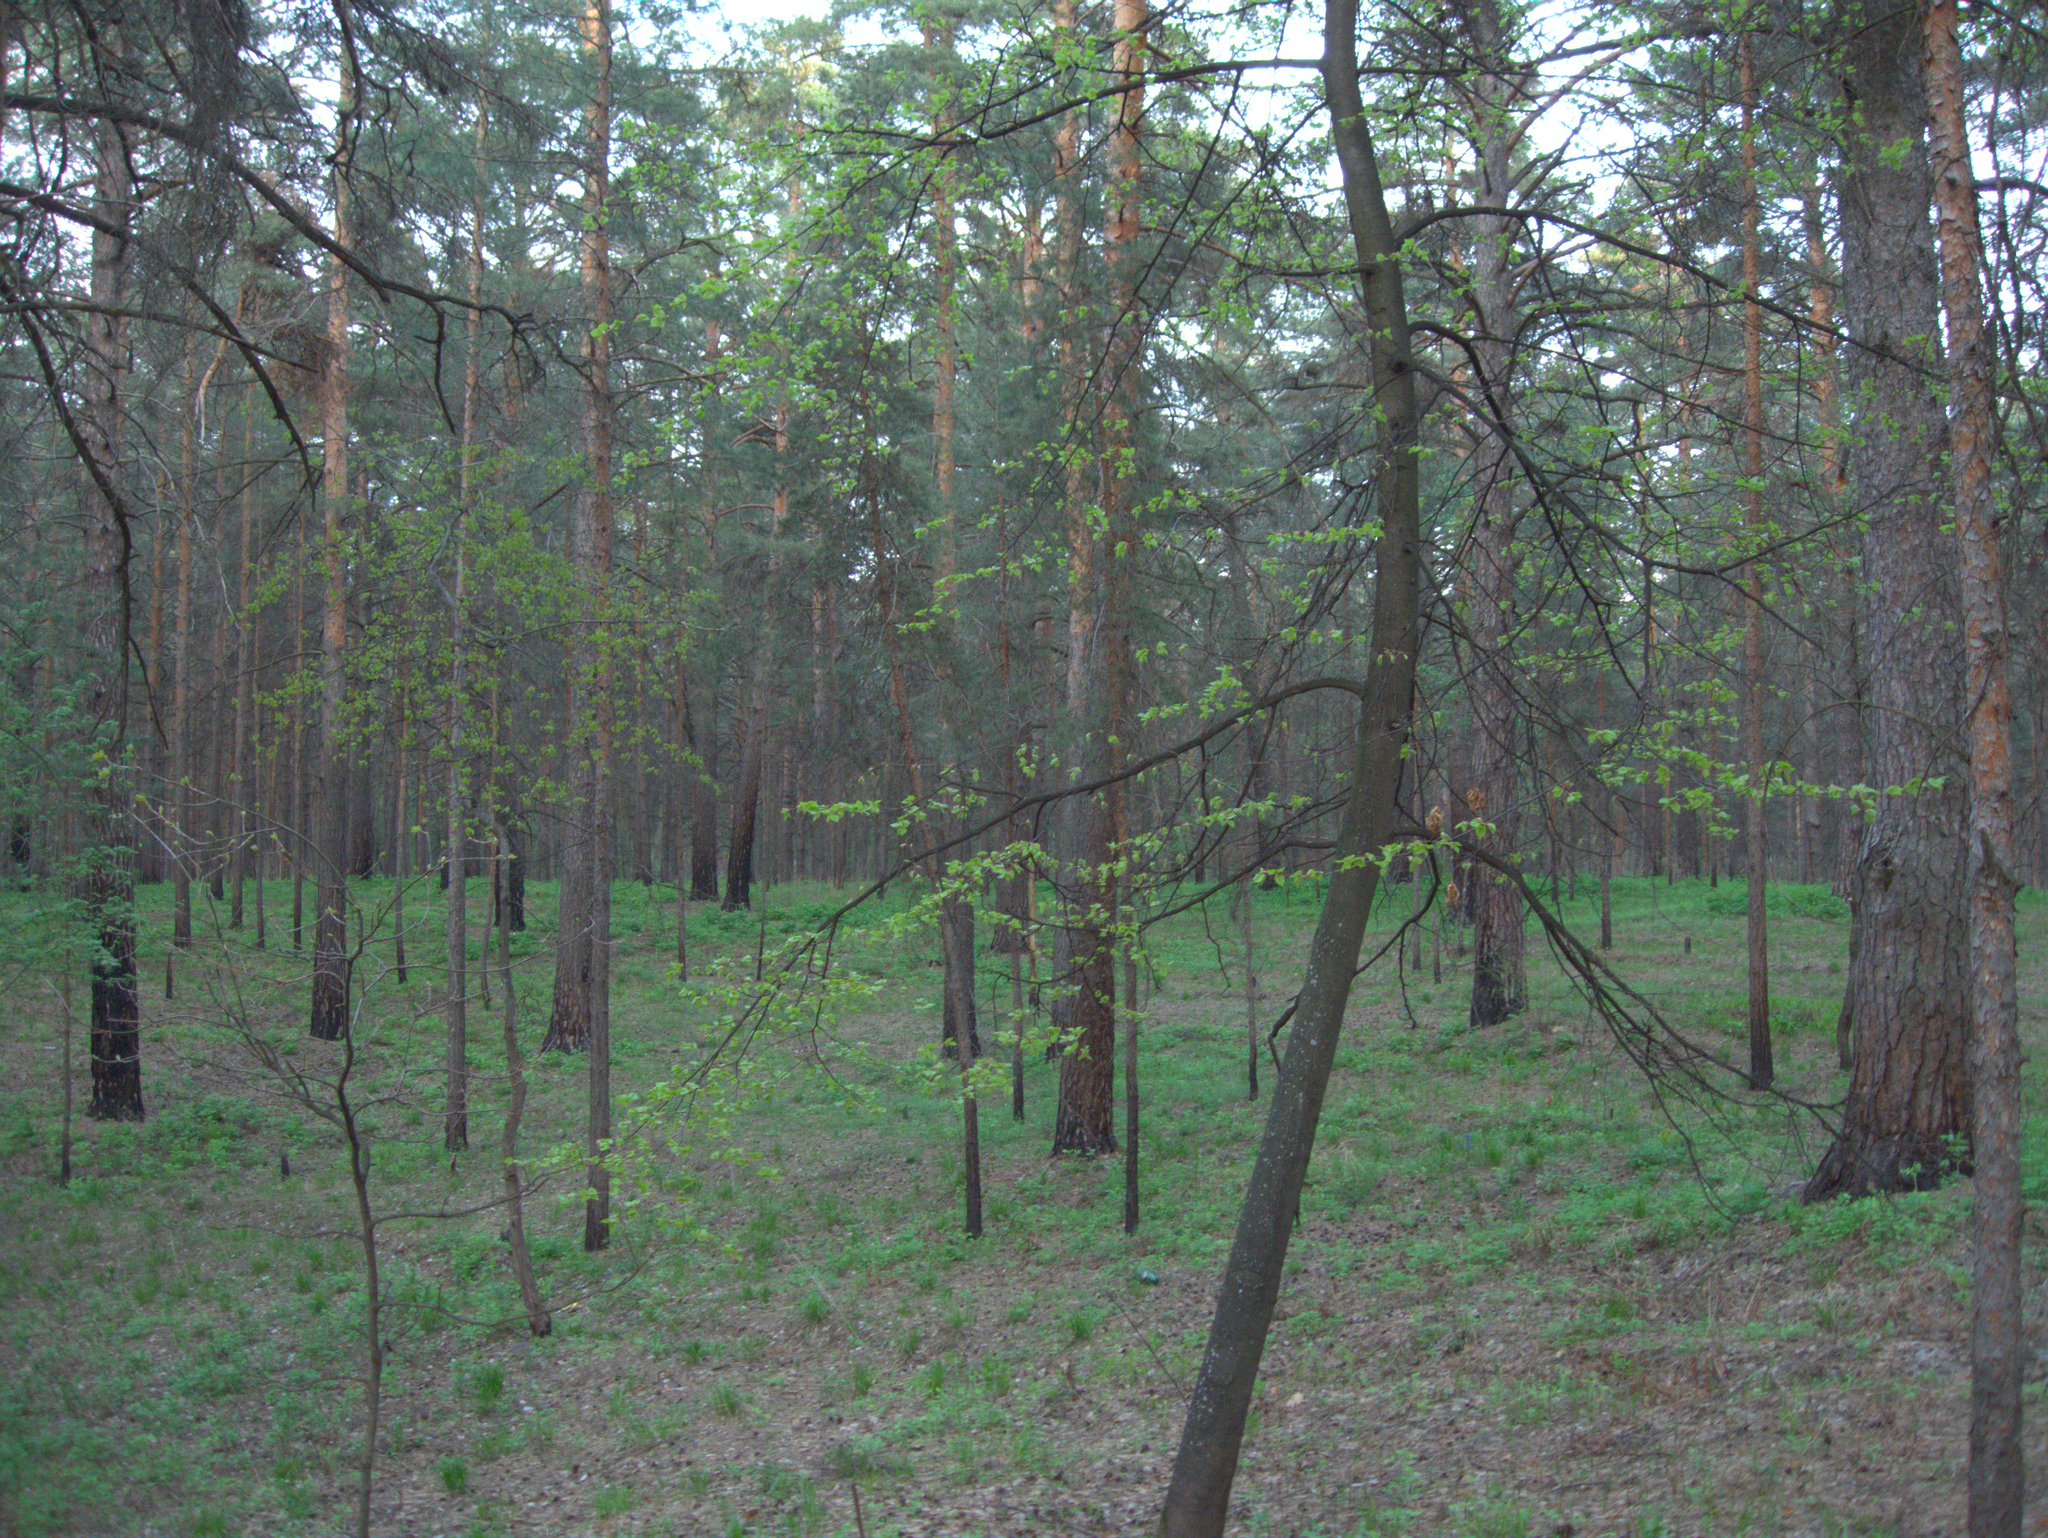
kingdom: Plantae
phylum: Tracheophyta
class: Magnoliopsida
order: Malvales
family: Malvaceae
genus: Tilia
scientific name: Tilia cordata
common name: Small-leaved lime
